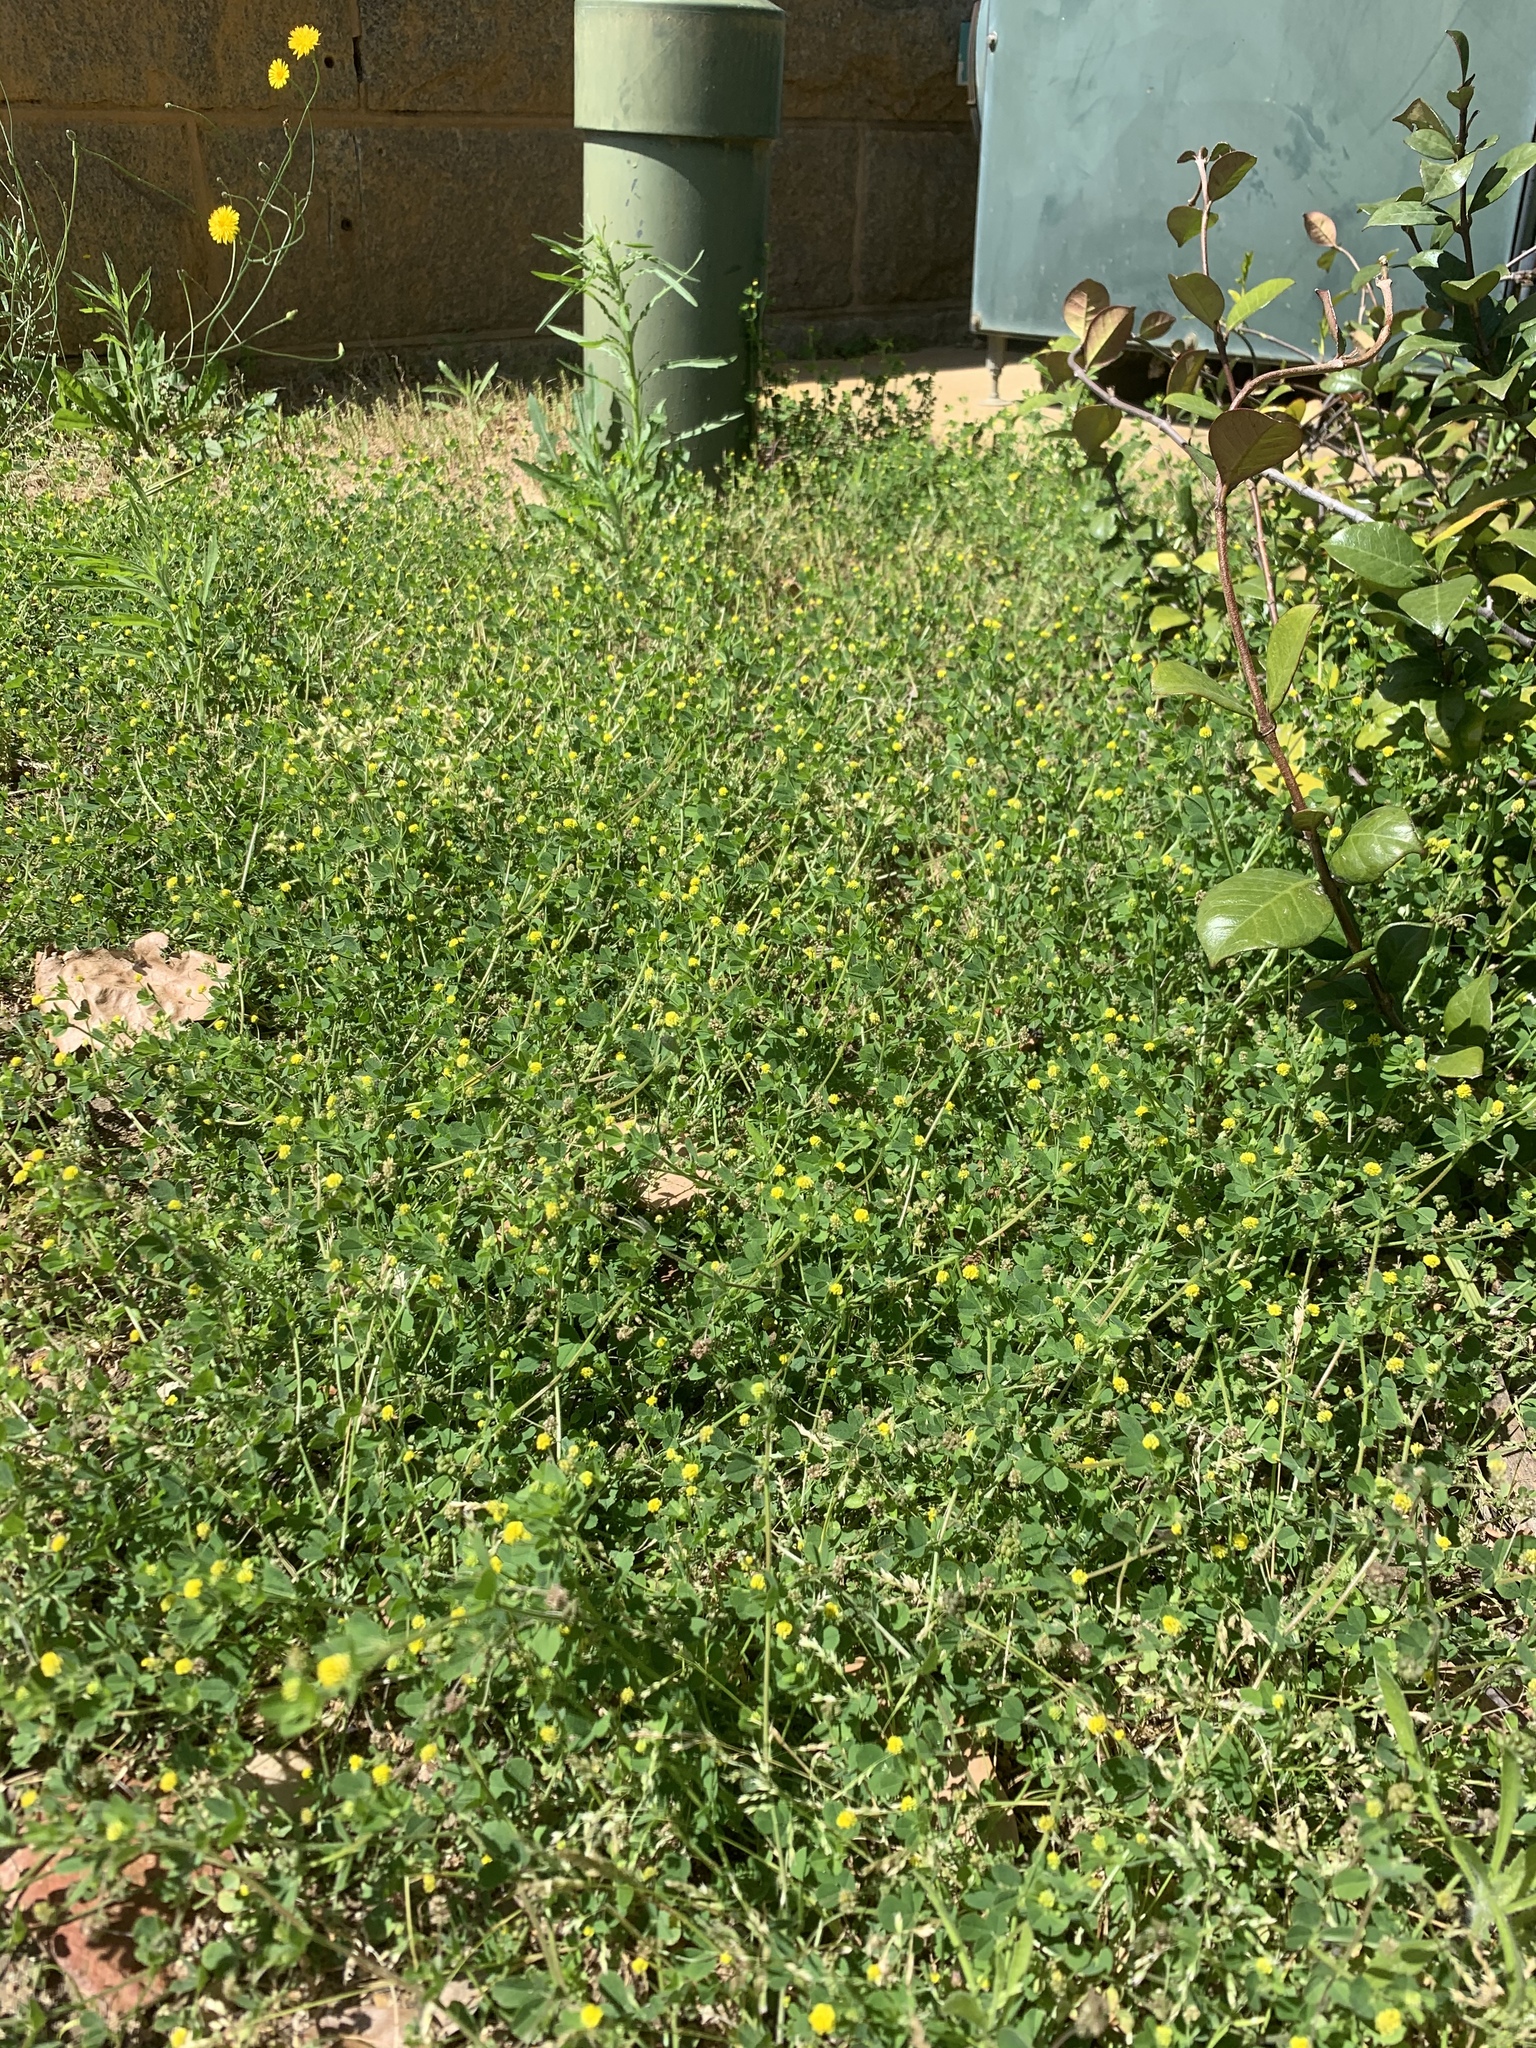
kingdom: Plantae
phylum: Tracheophyta
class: Magnoliopsida
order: Fabales
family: Fabaceae
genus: Medicago
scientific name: Medicago lupulina
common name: Black medick
